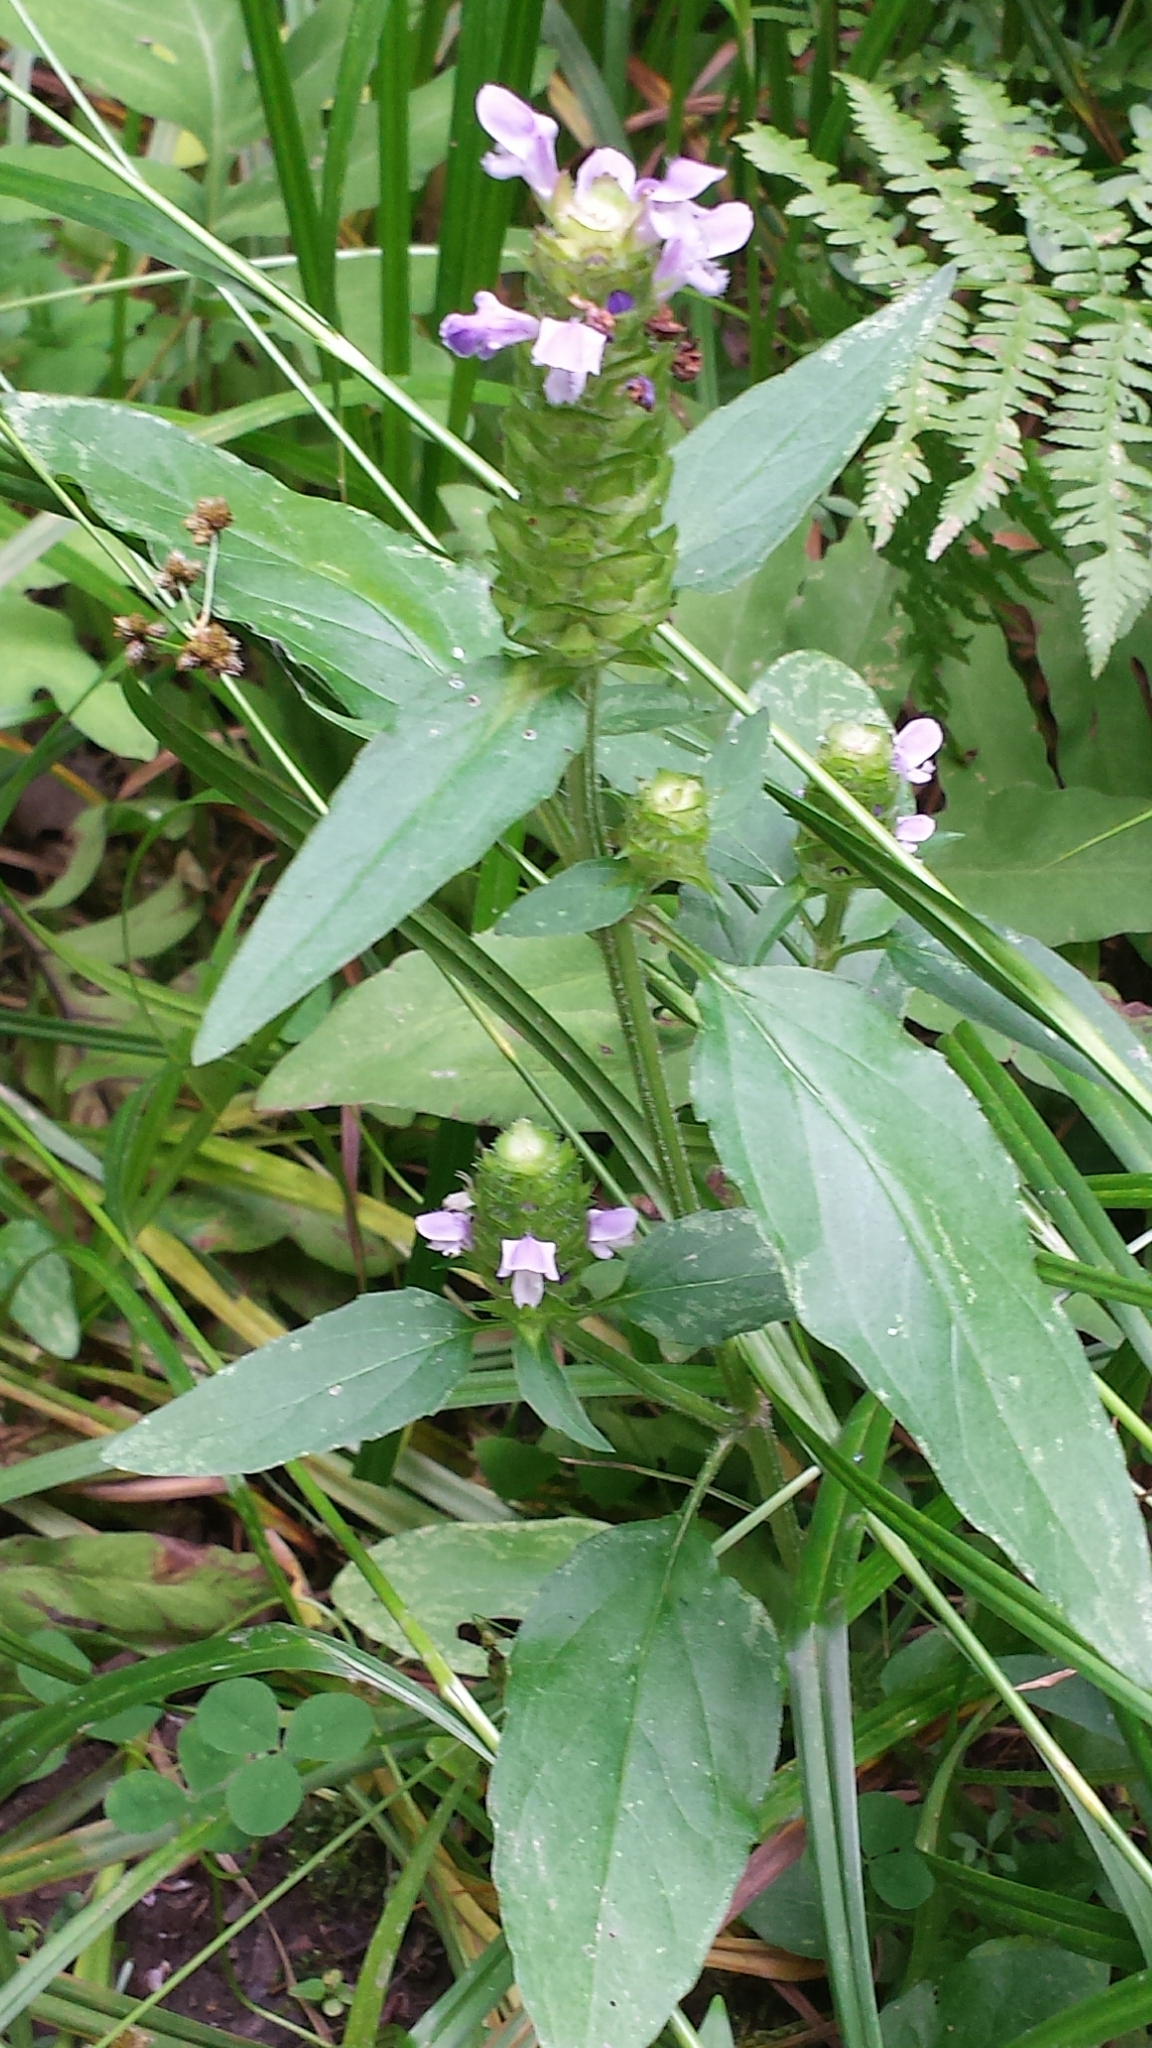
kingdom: Plantae
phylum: Tracheophyta
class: Magnoliopsida
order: Lamiales
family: Lamiaceae
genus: Prunella
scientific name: Prunella vulgaris
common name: Heal-all
